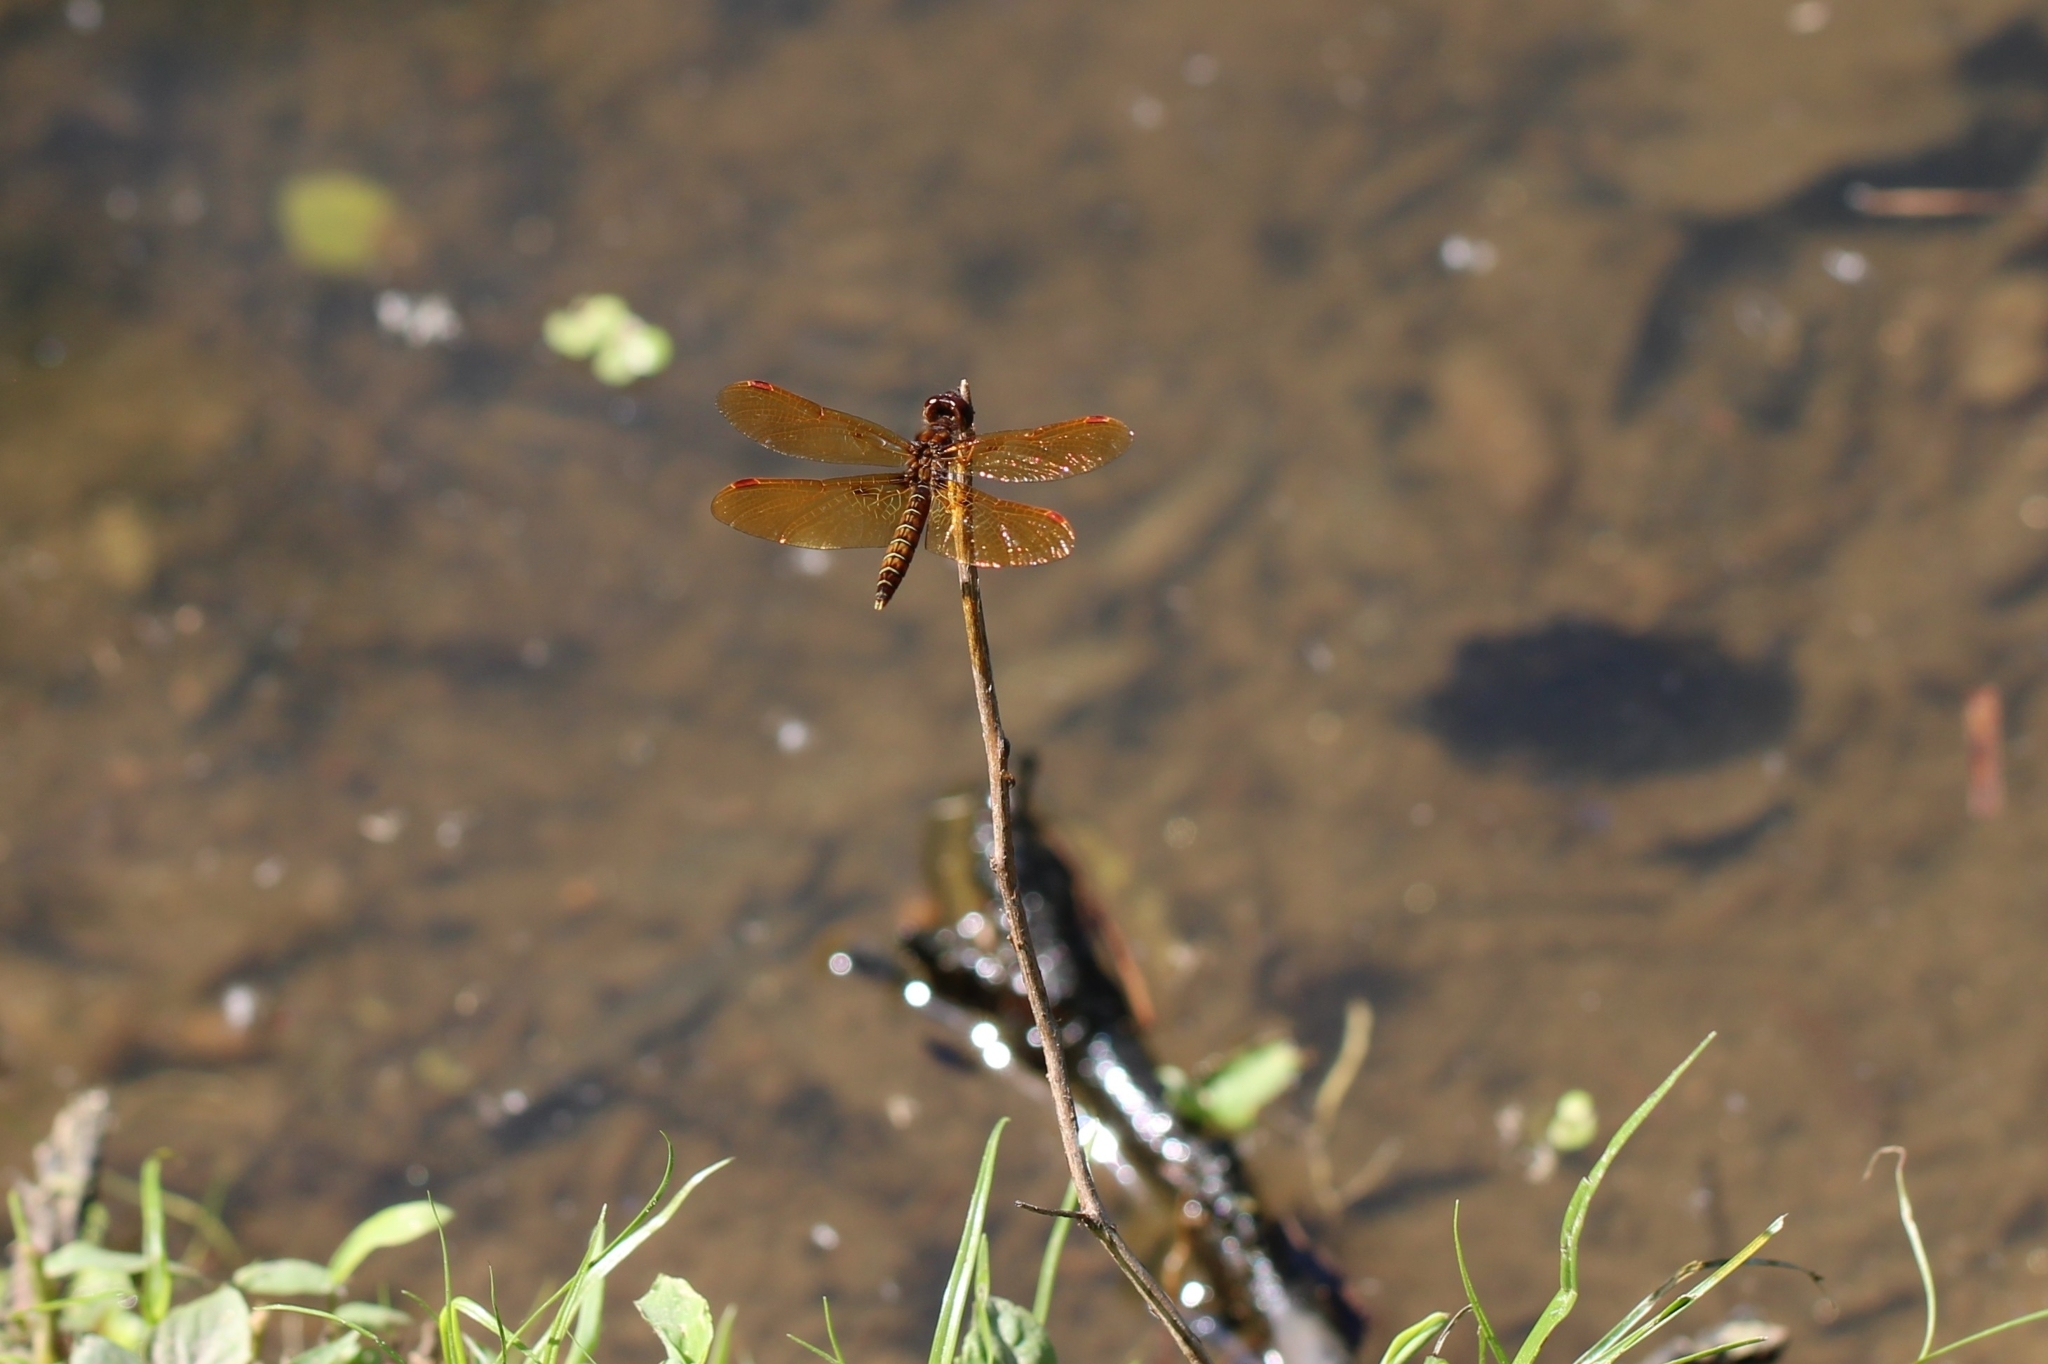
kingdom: Animalia
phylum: Arthropoda
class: Insecta
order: Odonata
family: Libellulidae
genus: Perithemis
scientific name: Perithemis tenera
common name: Eastern amberwing
